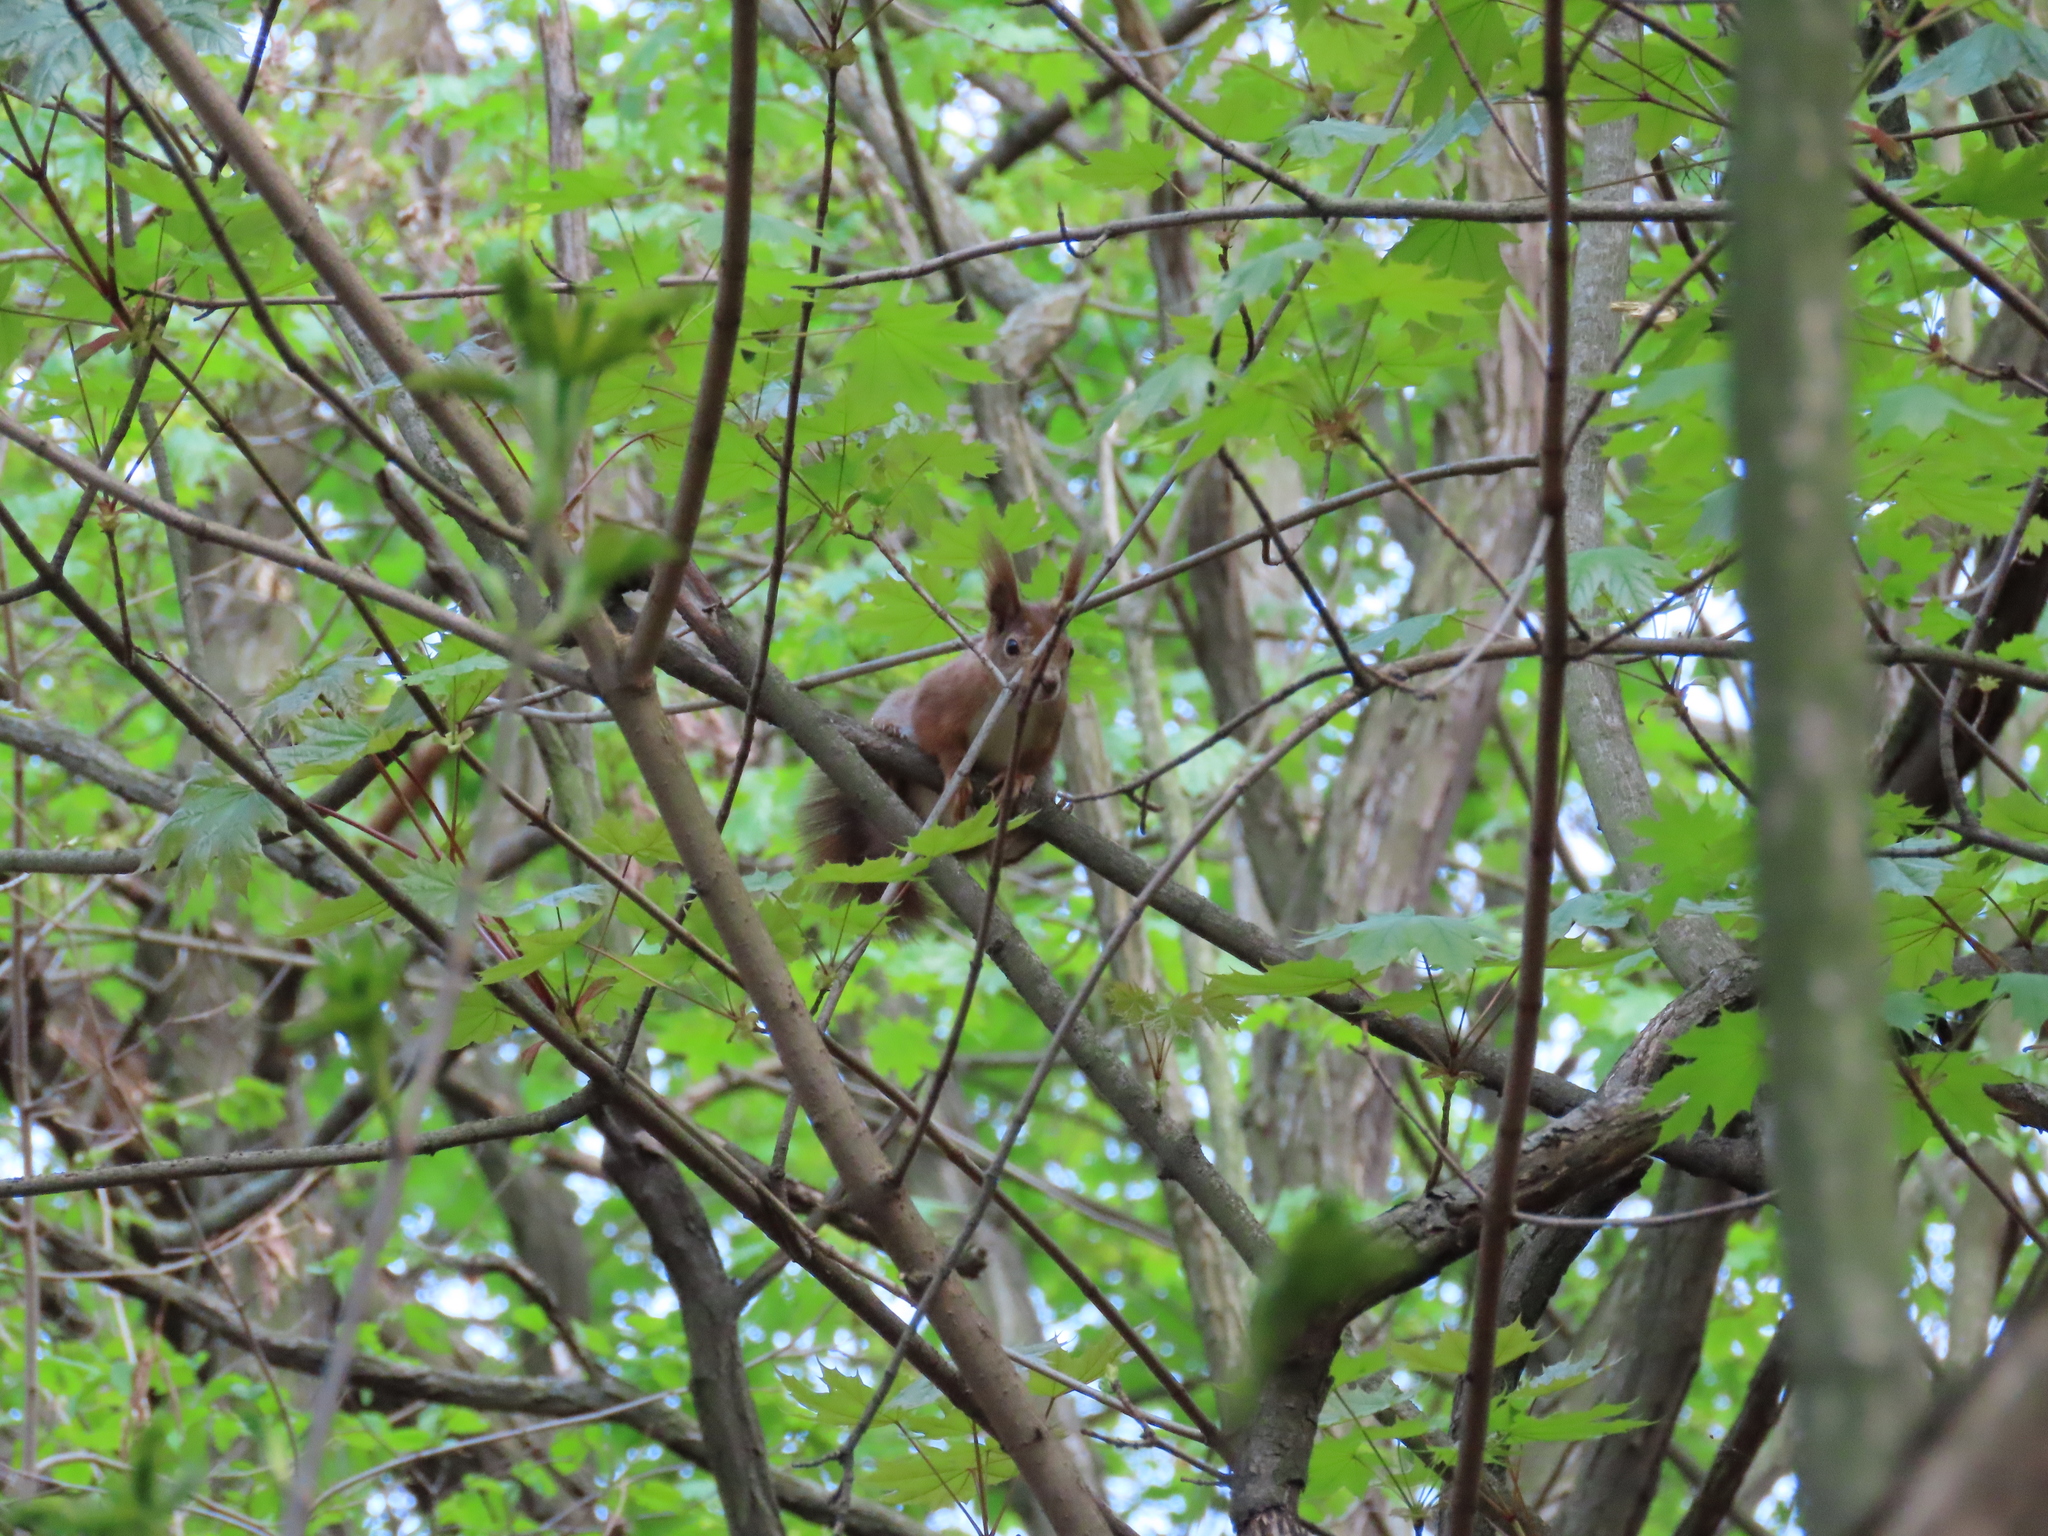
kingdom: Animalia
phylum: Chordata
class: Mammalia
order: Rodentia
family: Sciuridae
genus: Sciurus
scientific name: Sciurus vulgaris
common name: Eurasian red squirrel
